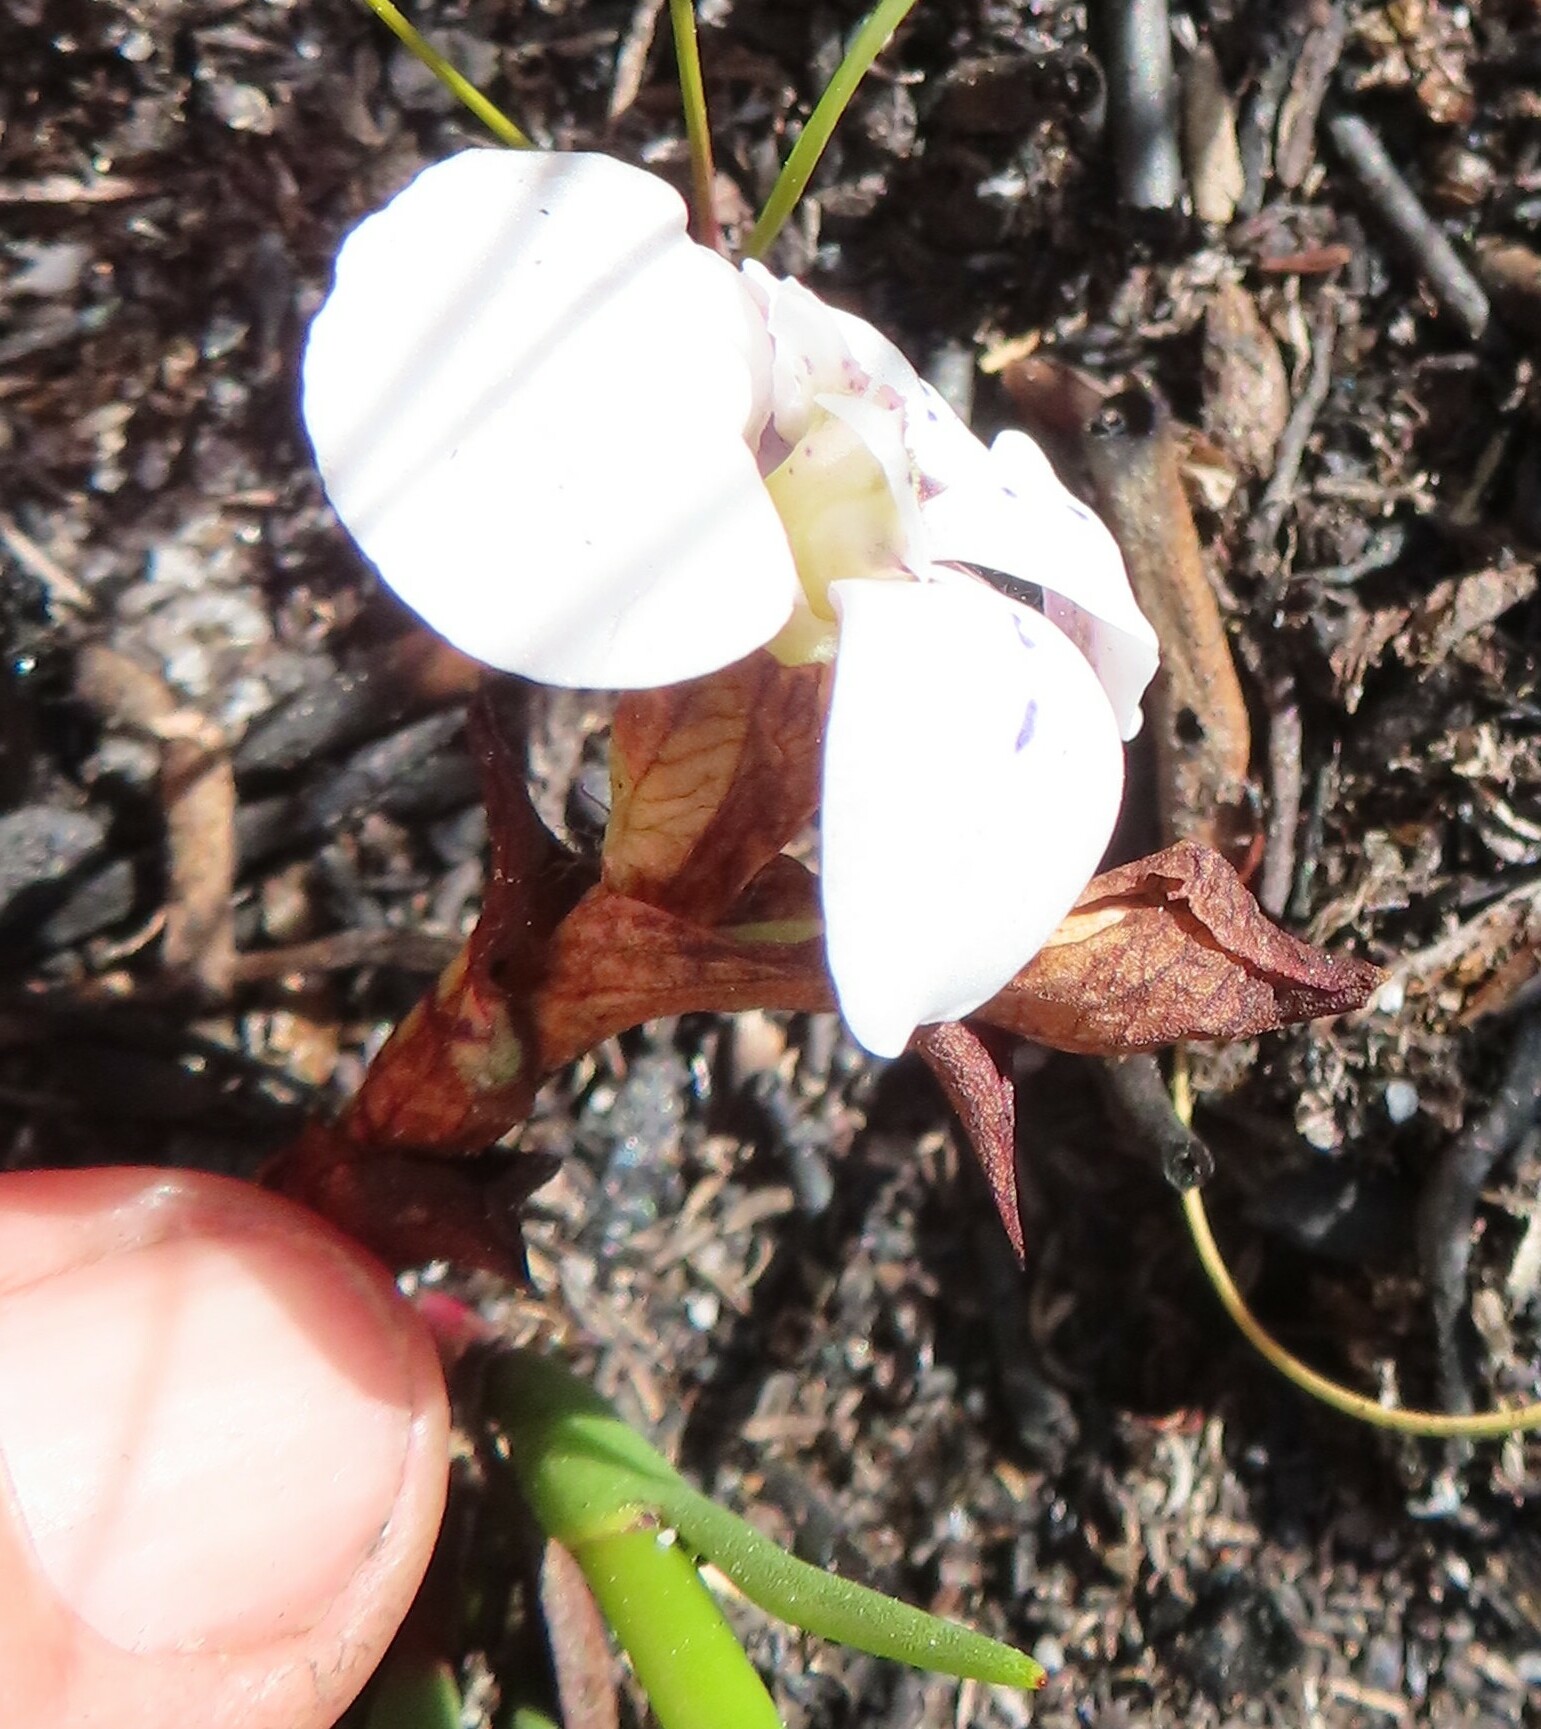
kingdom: Plantae
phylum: Tracheophyta
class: Liliopsida
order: Asparagales
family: Orchidaceae
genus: Disa
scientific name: Disa fasciata
